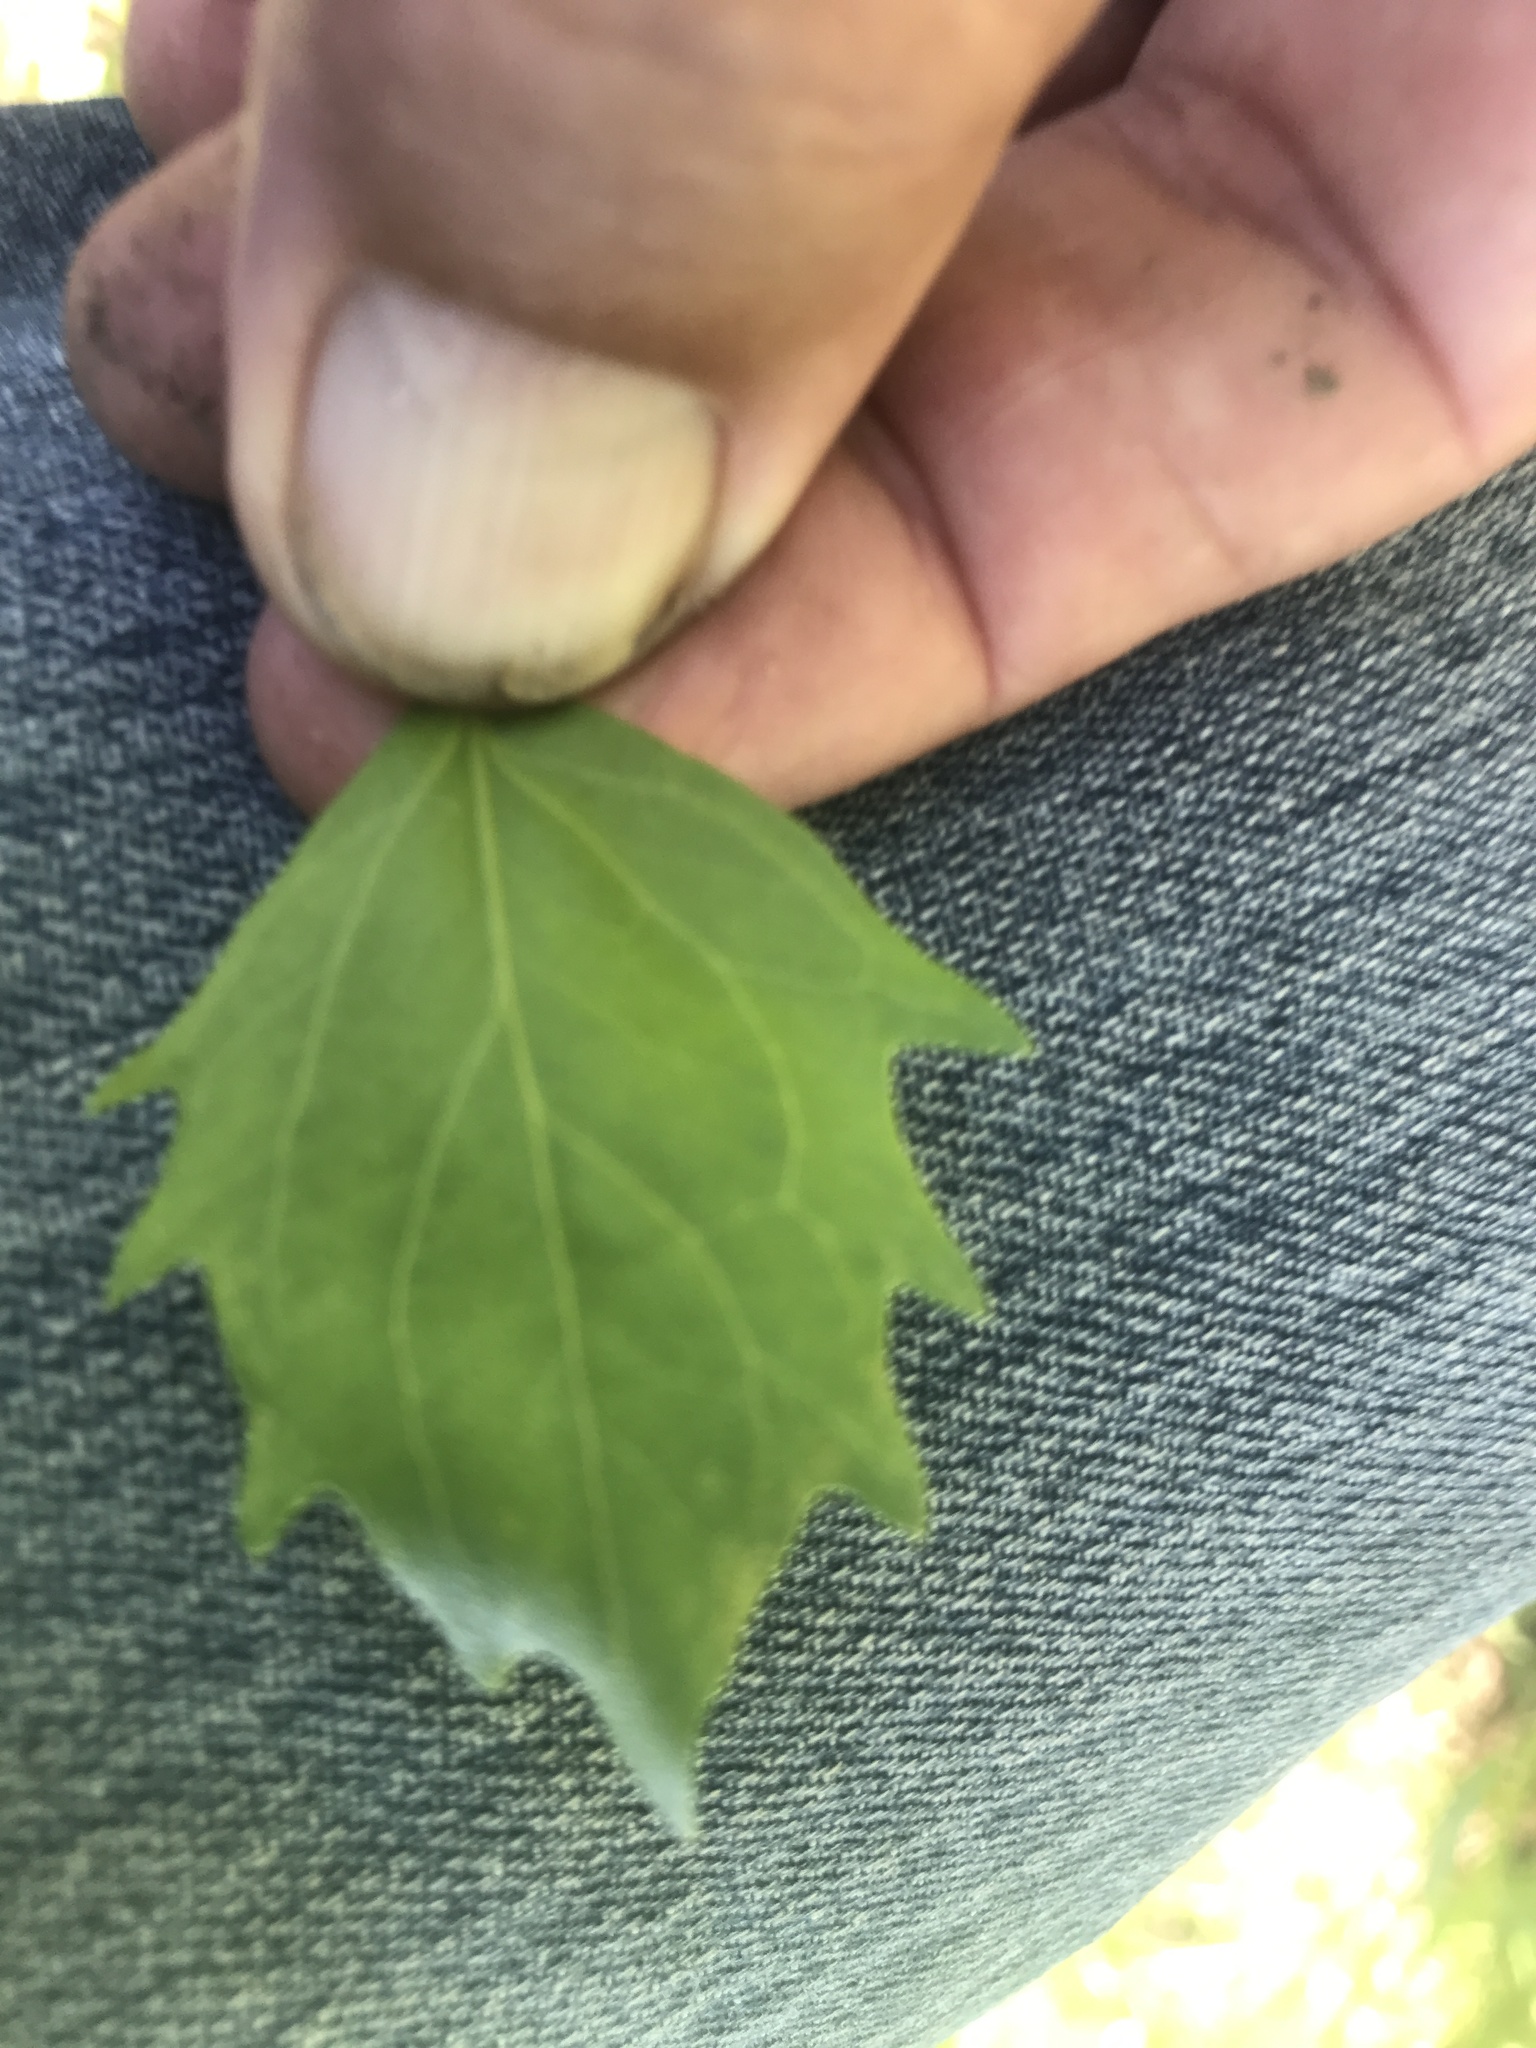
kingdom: Plantae
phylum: Tracheophyta
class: Magnoliopsida
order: Asterales
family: Asteraceae
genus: Baccharis
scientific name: Baccharis halimifolia
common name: Eastern baccharis
